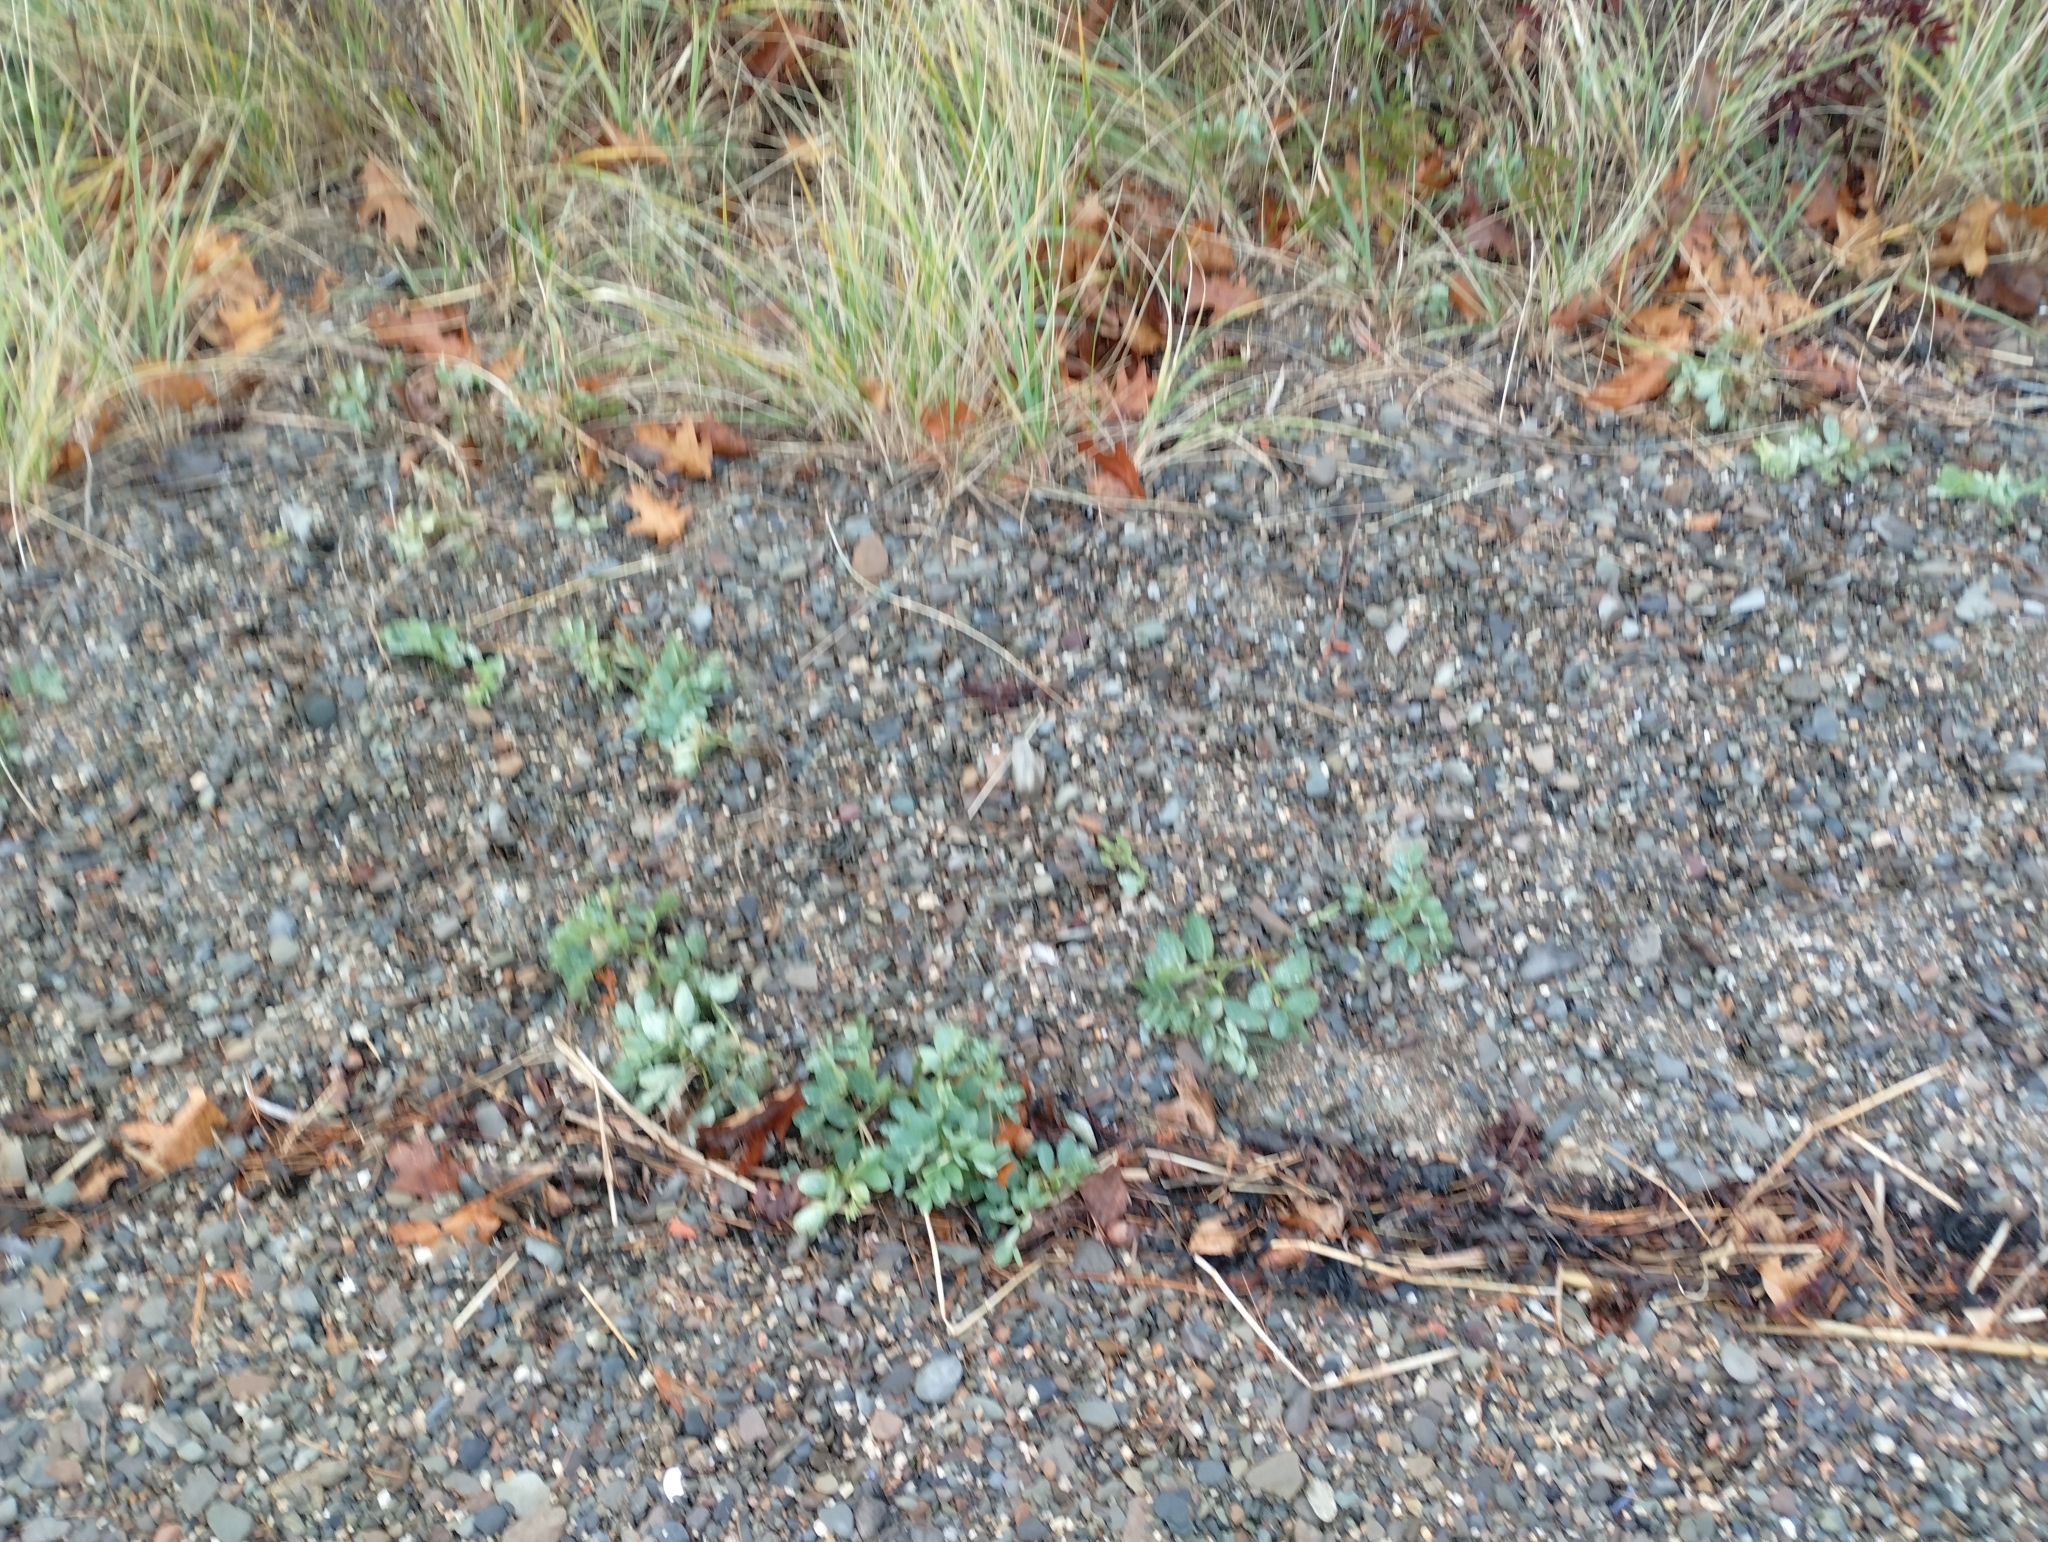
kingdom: Plantae
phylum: Tracheophyta
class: Magnoliopsida
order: Fabales
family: Fabaceae
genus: Lathyrus
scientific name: Lathyrus japonicus
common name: Sea pea
